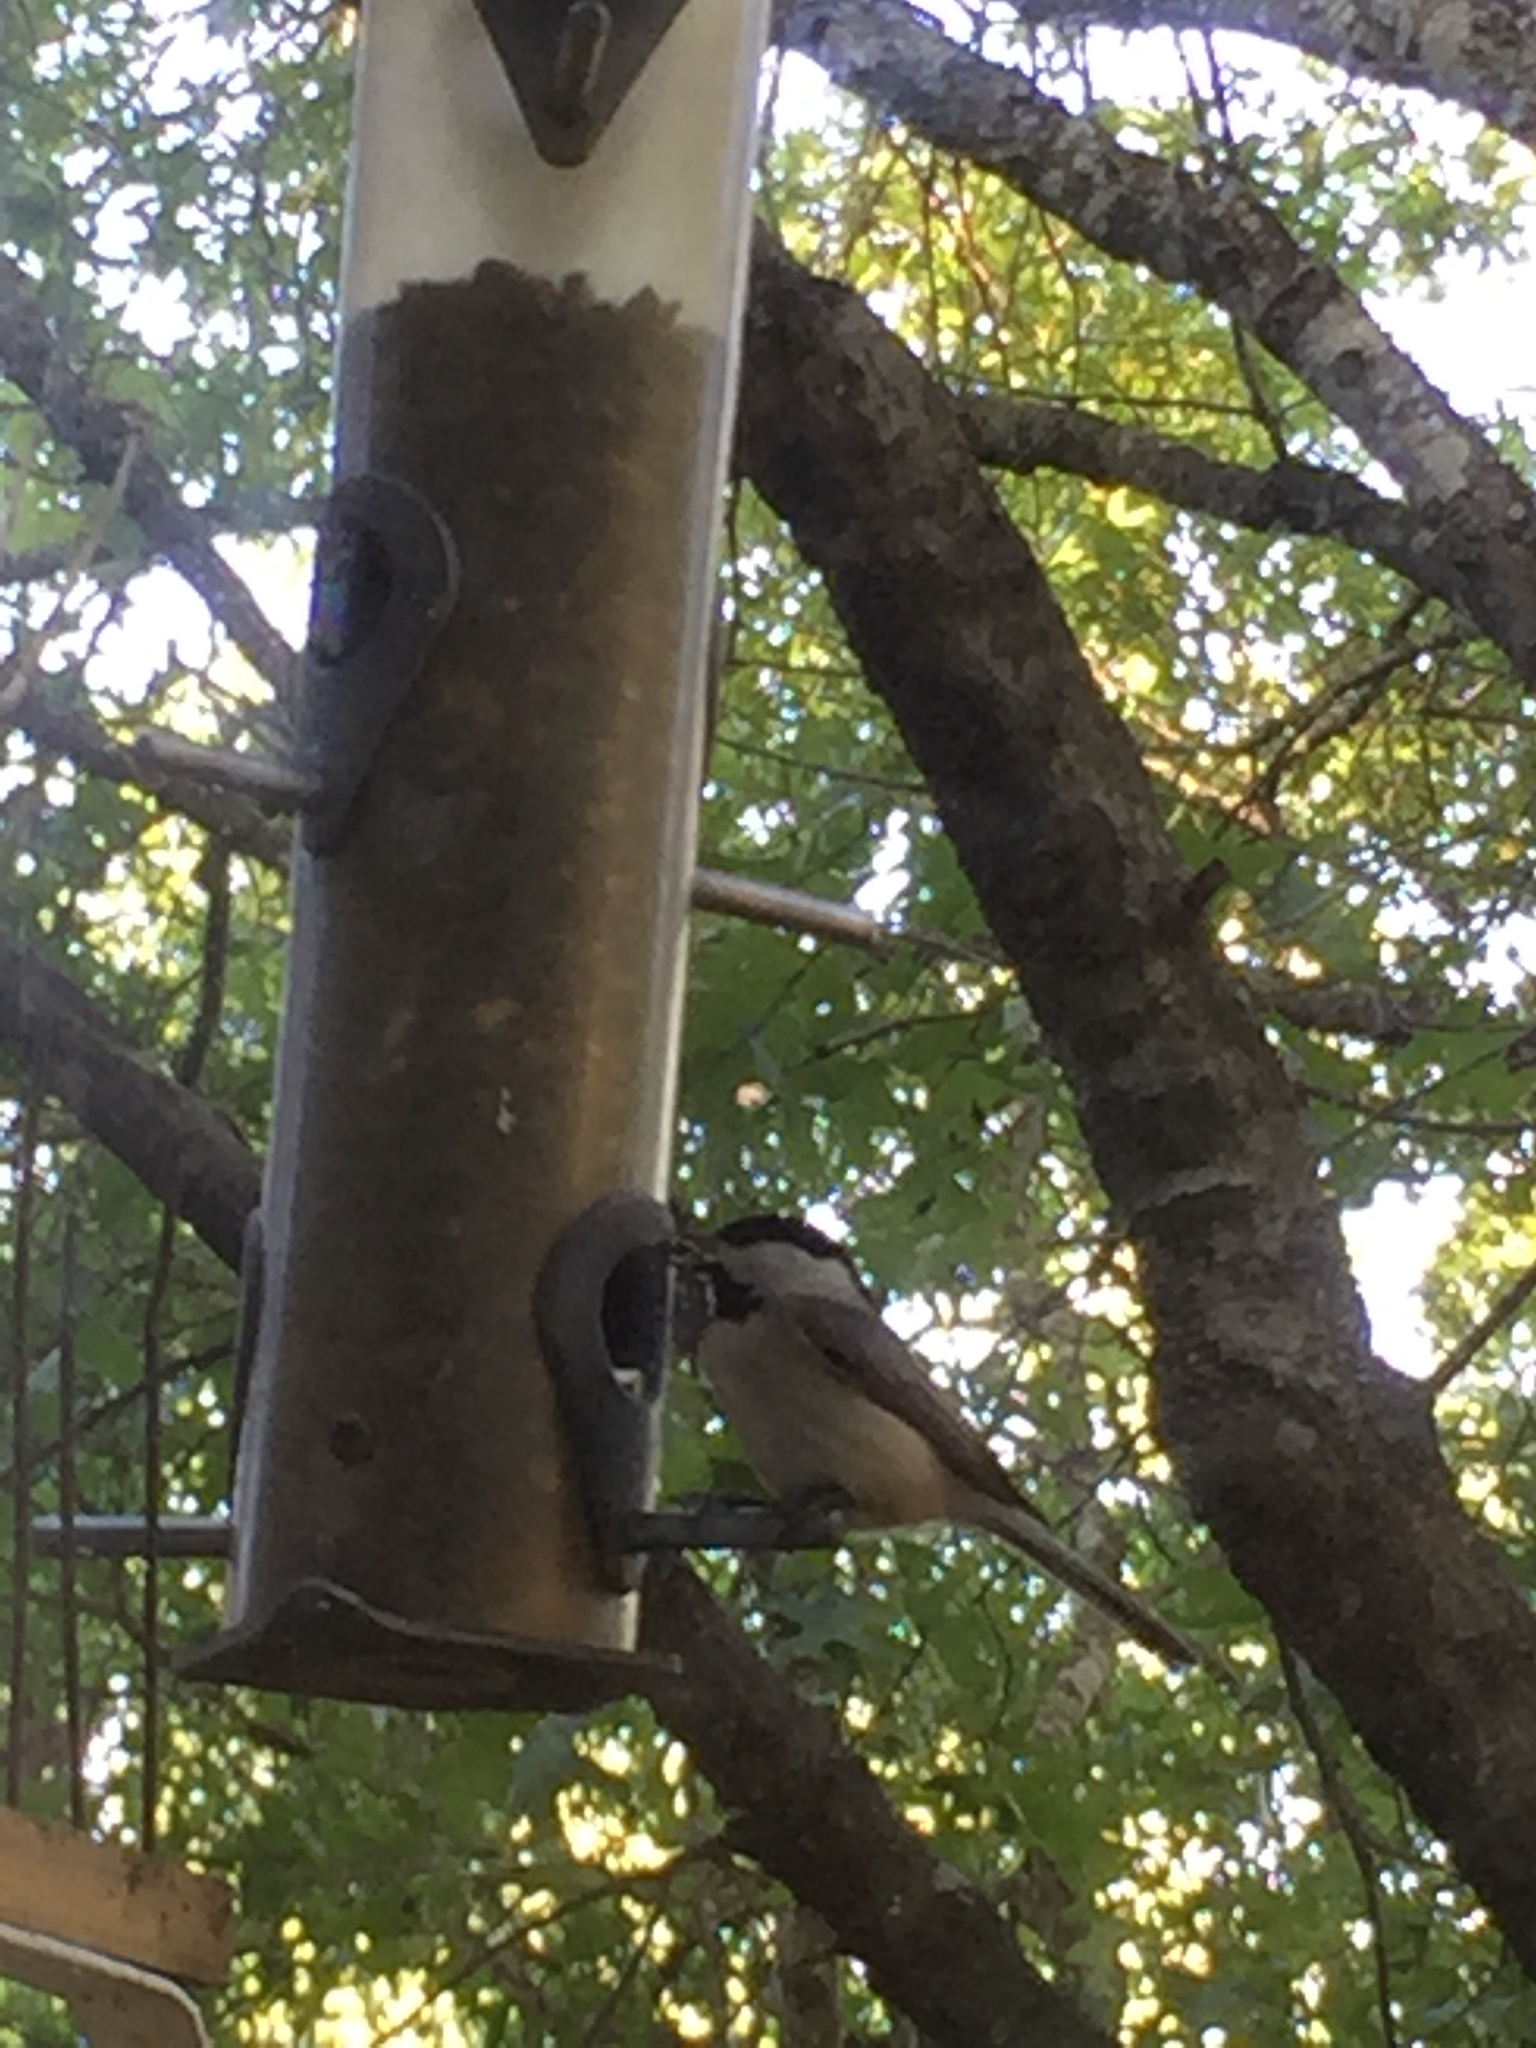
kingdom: Animalia
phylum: Chordata
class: Aves
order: Passeriformes
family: Paridae
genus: Poecile
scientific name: Poecile carolinensis
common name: Carolina chickadee
